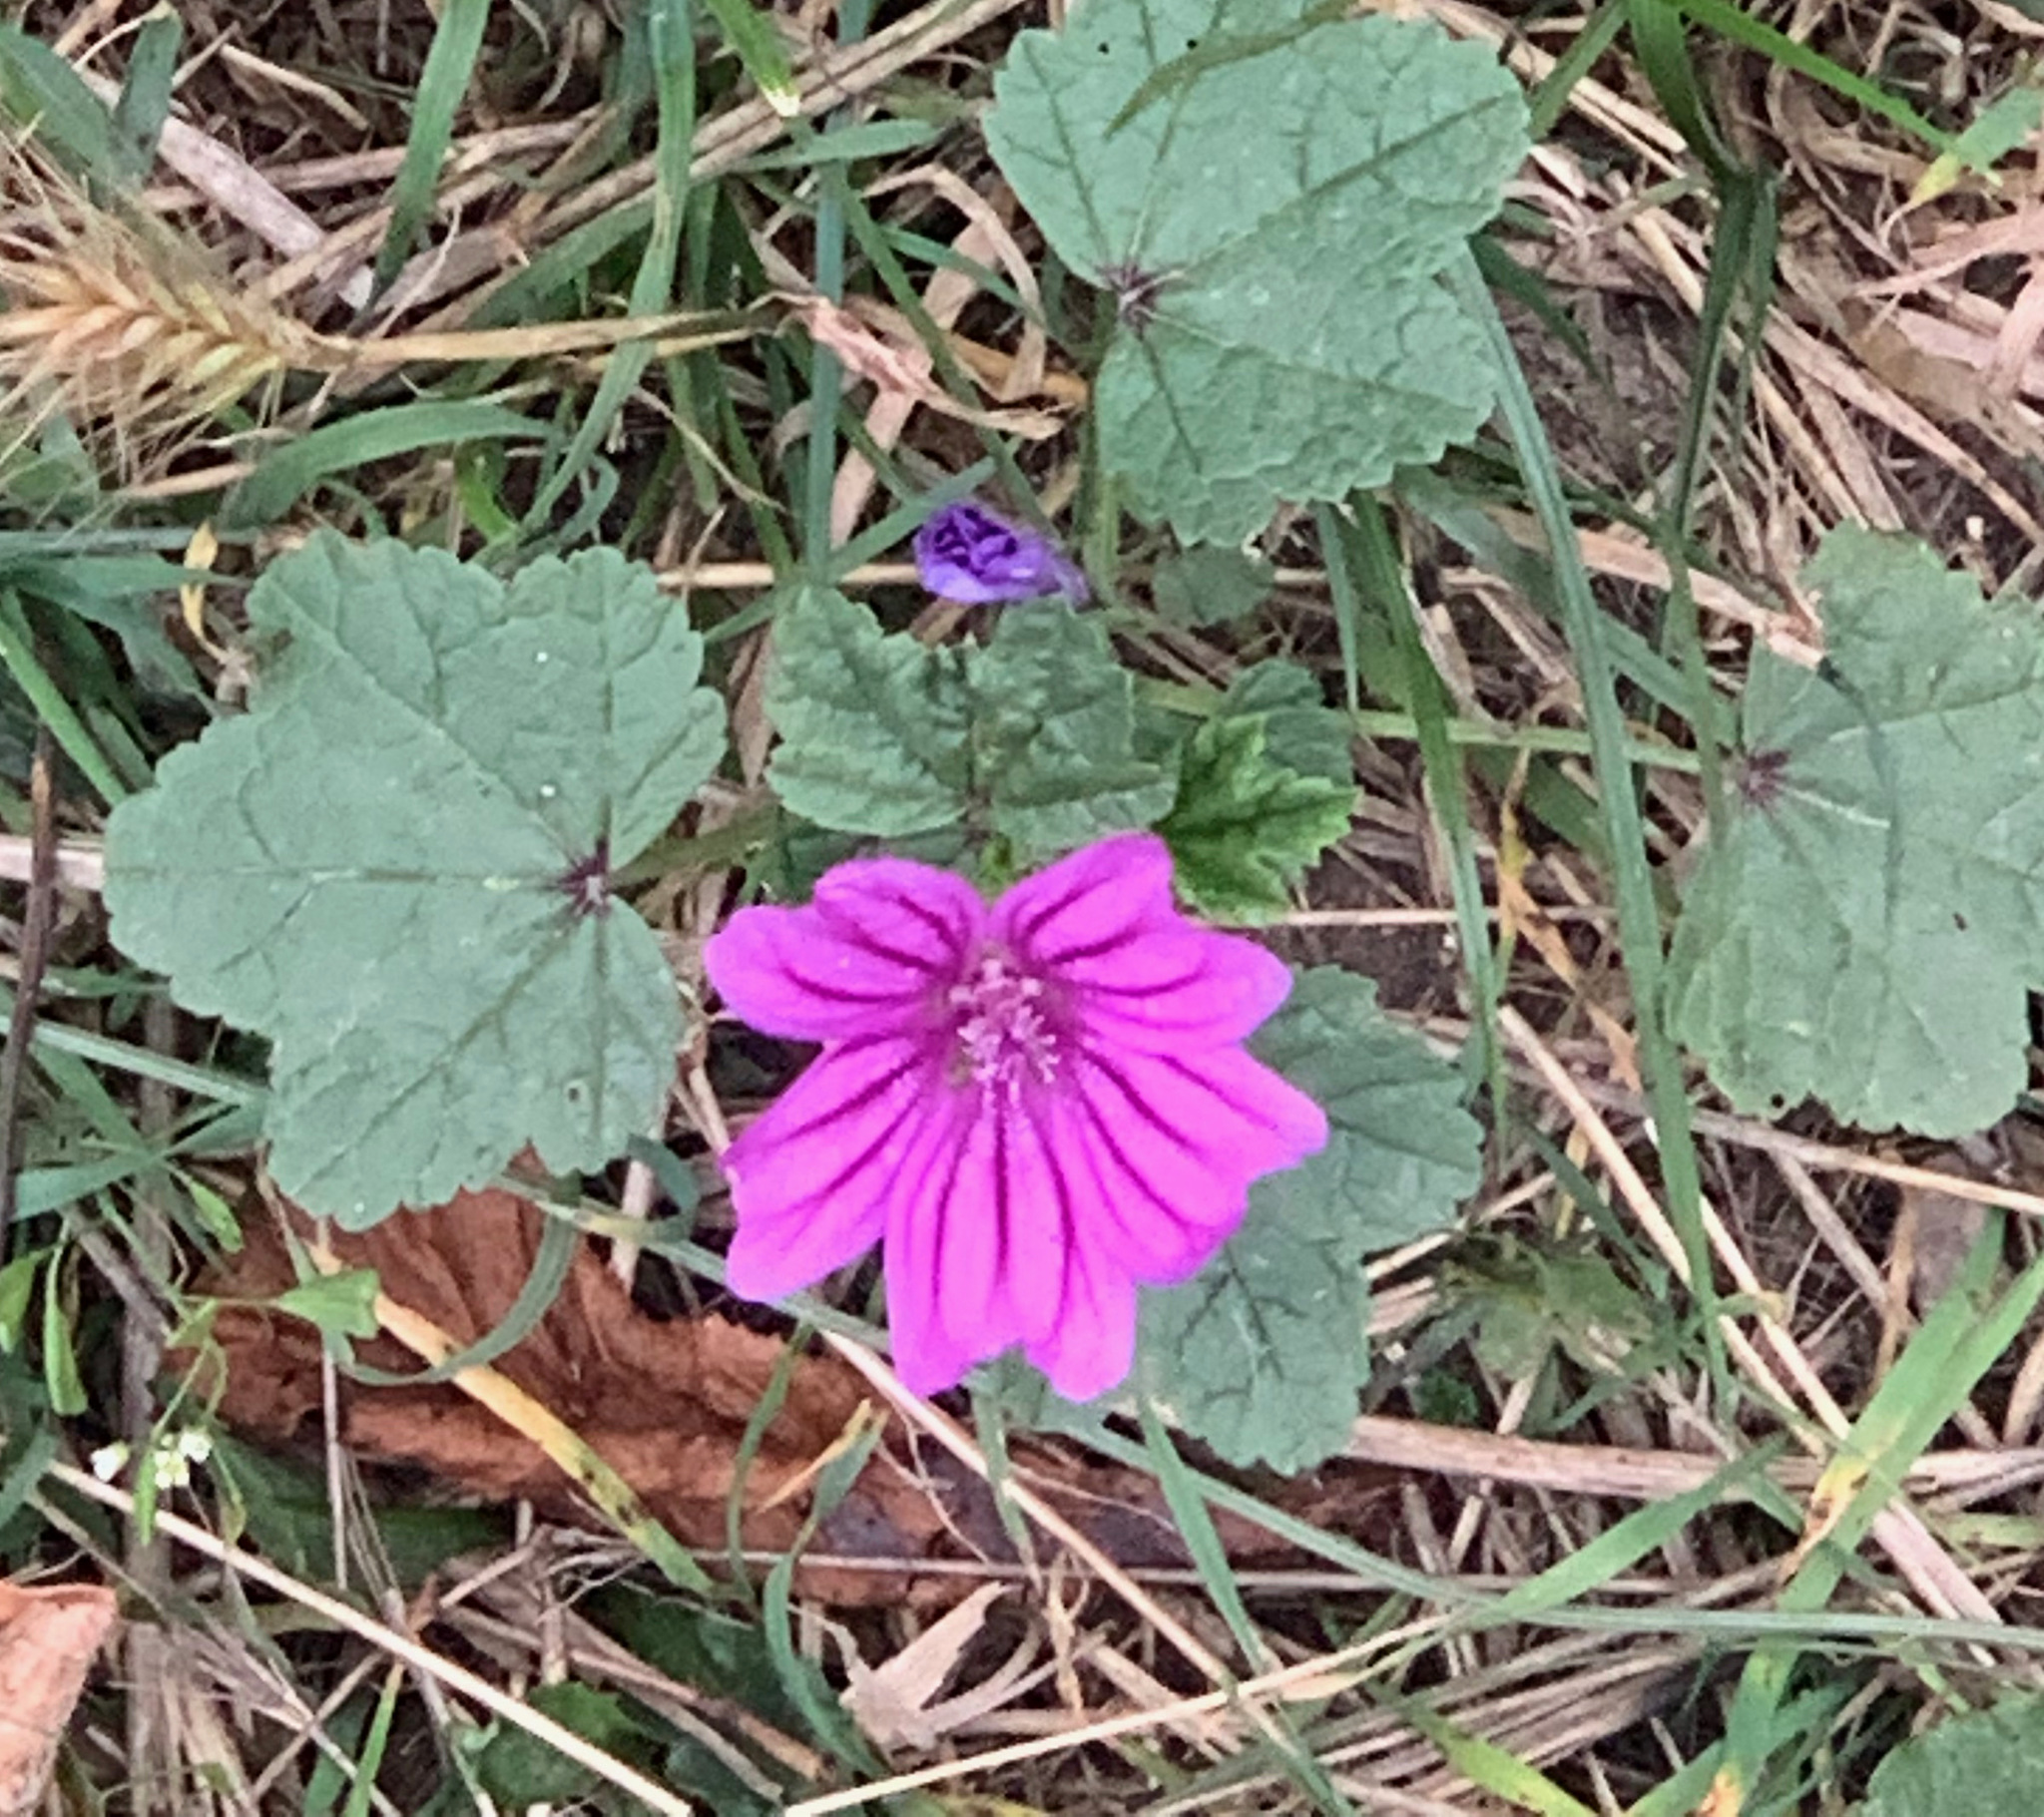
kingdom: Plantae
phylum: Tracheophyta
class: Magnoliopsida
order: Malvales
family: Malvaceae
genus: Malva
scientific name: Malva sylvestris
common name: Common mallow
